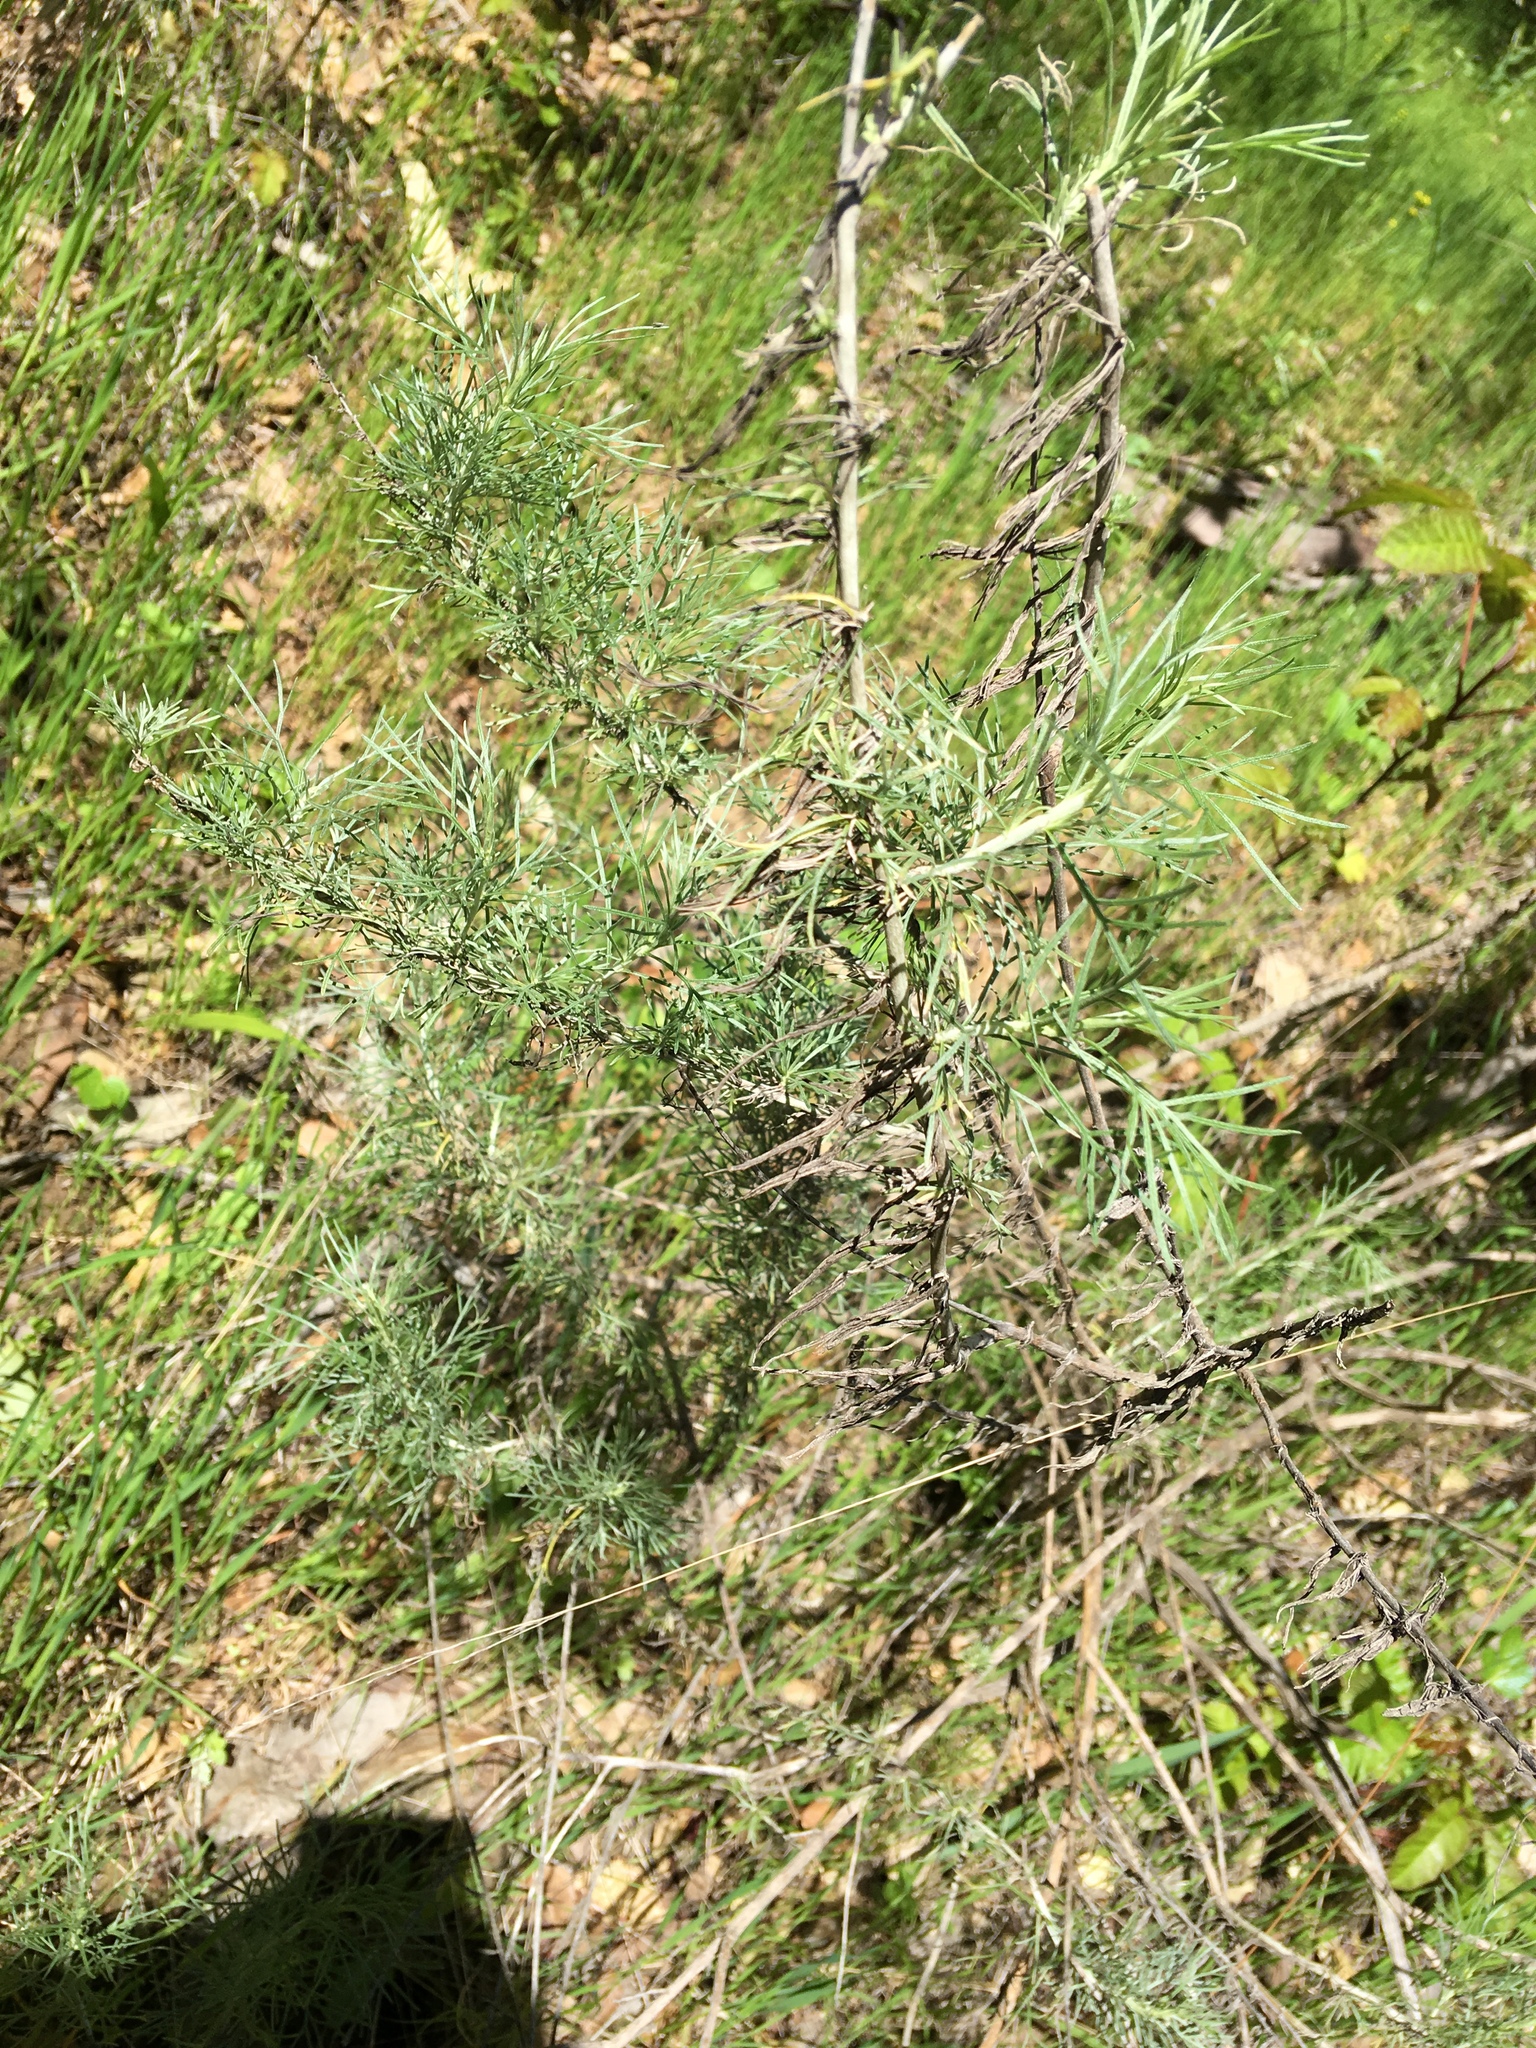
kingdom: Plantae
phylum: Tracheophyta
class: Magnoliopsida
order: Asterales
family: Asteraceae
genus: Artemisia
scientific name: Artemisia californica
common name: California sagebrush
